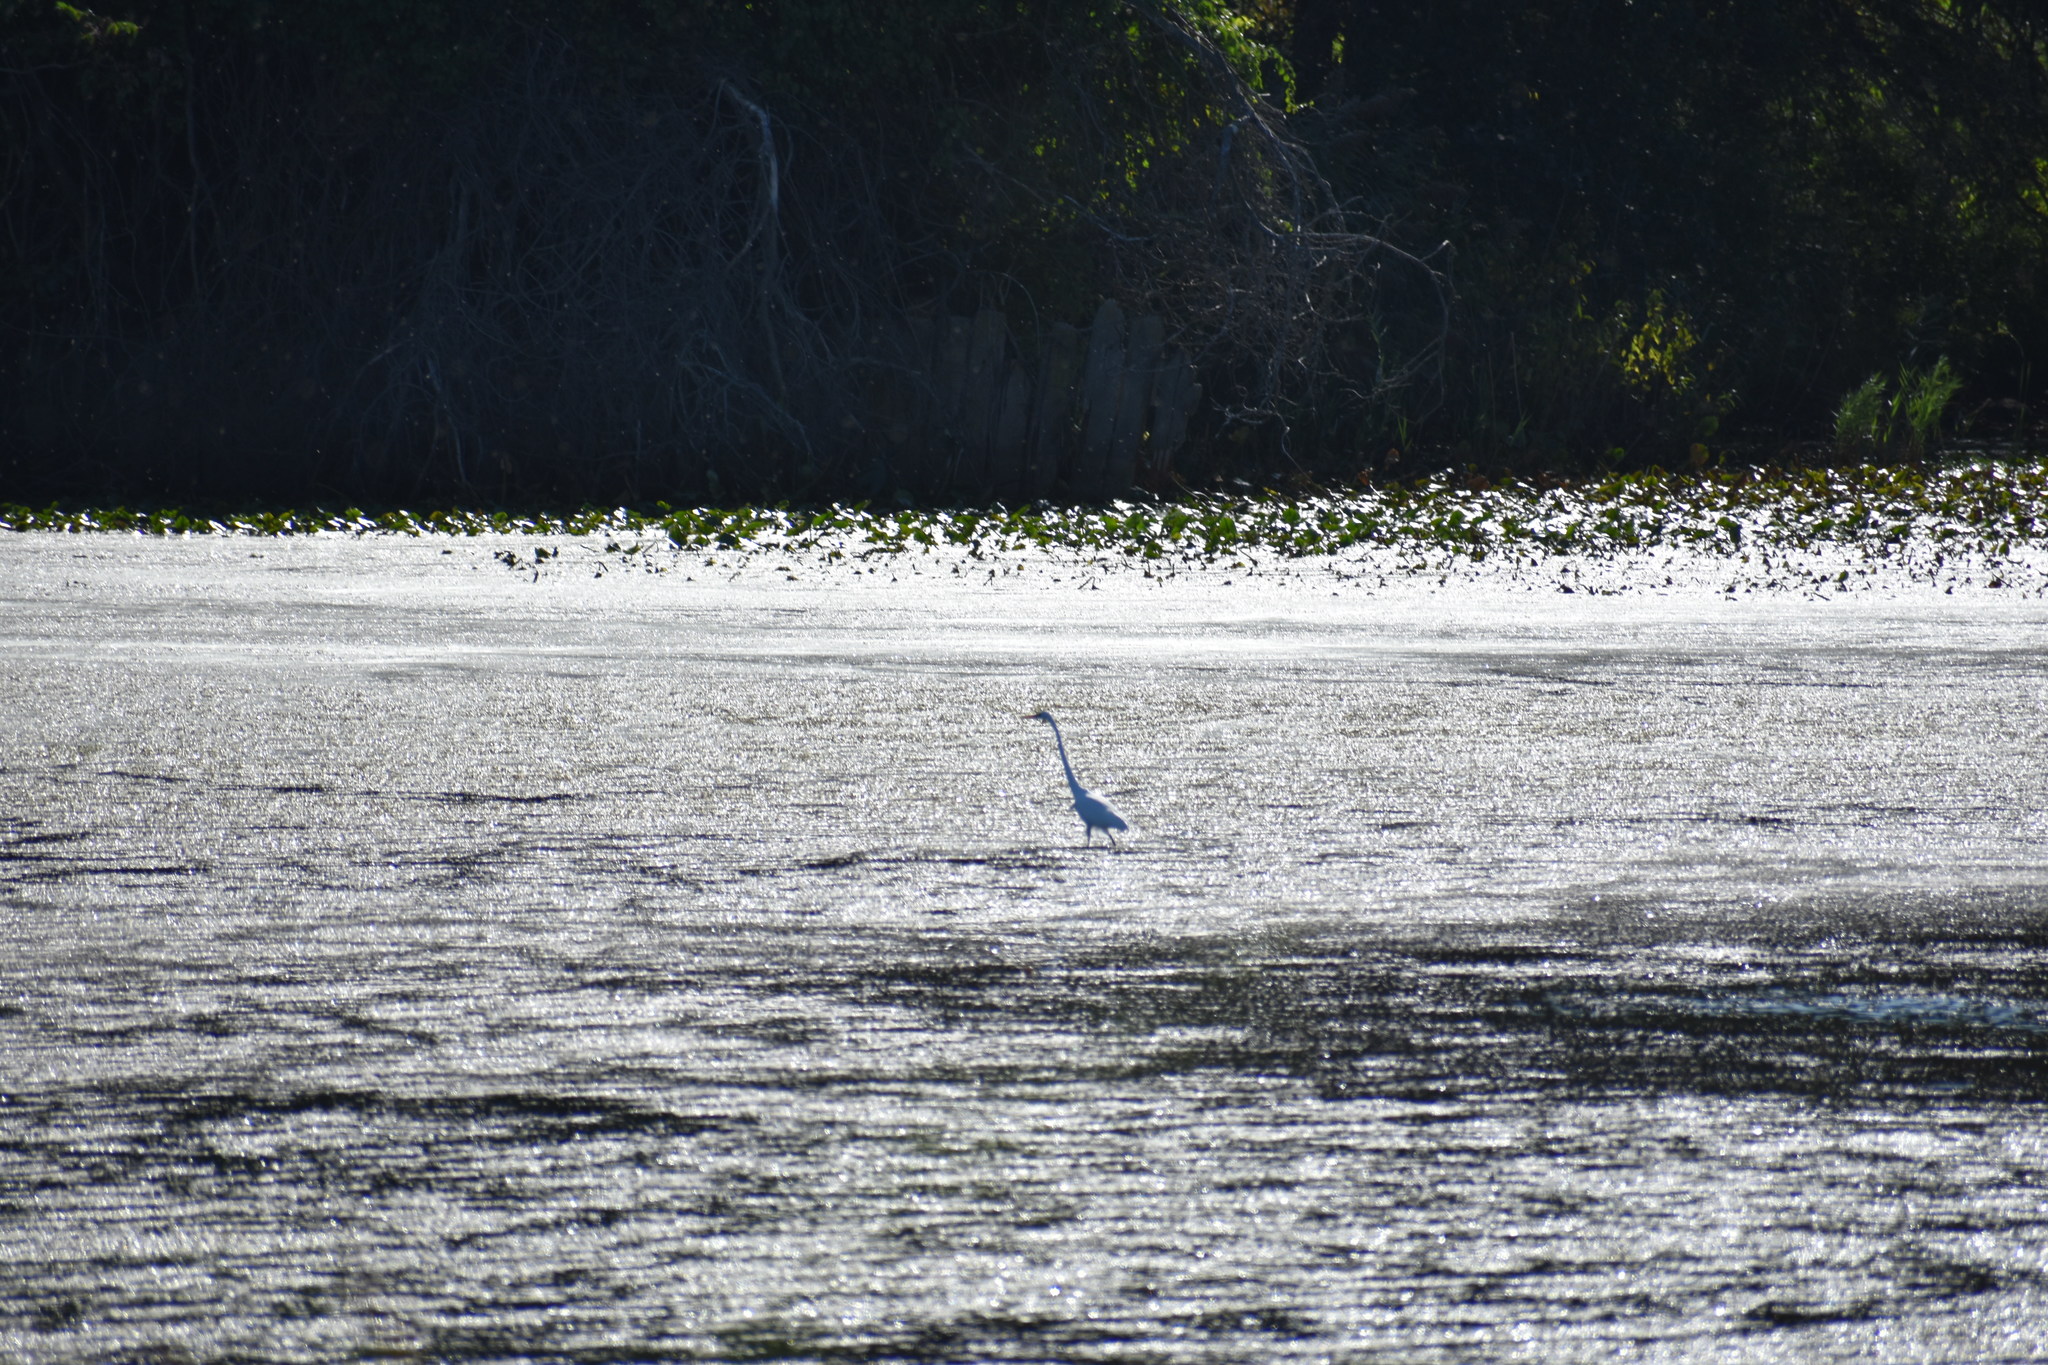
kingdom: Animalia
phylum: Chordata
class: Aves
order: Pelecaniformes
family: Ardeidae
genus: Ardea
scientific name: Ardea alba
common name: Great egret
